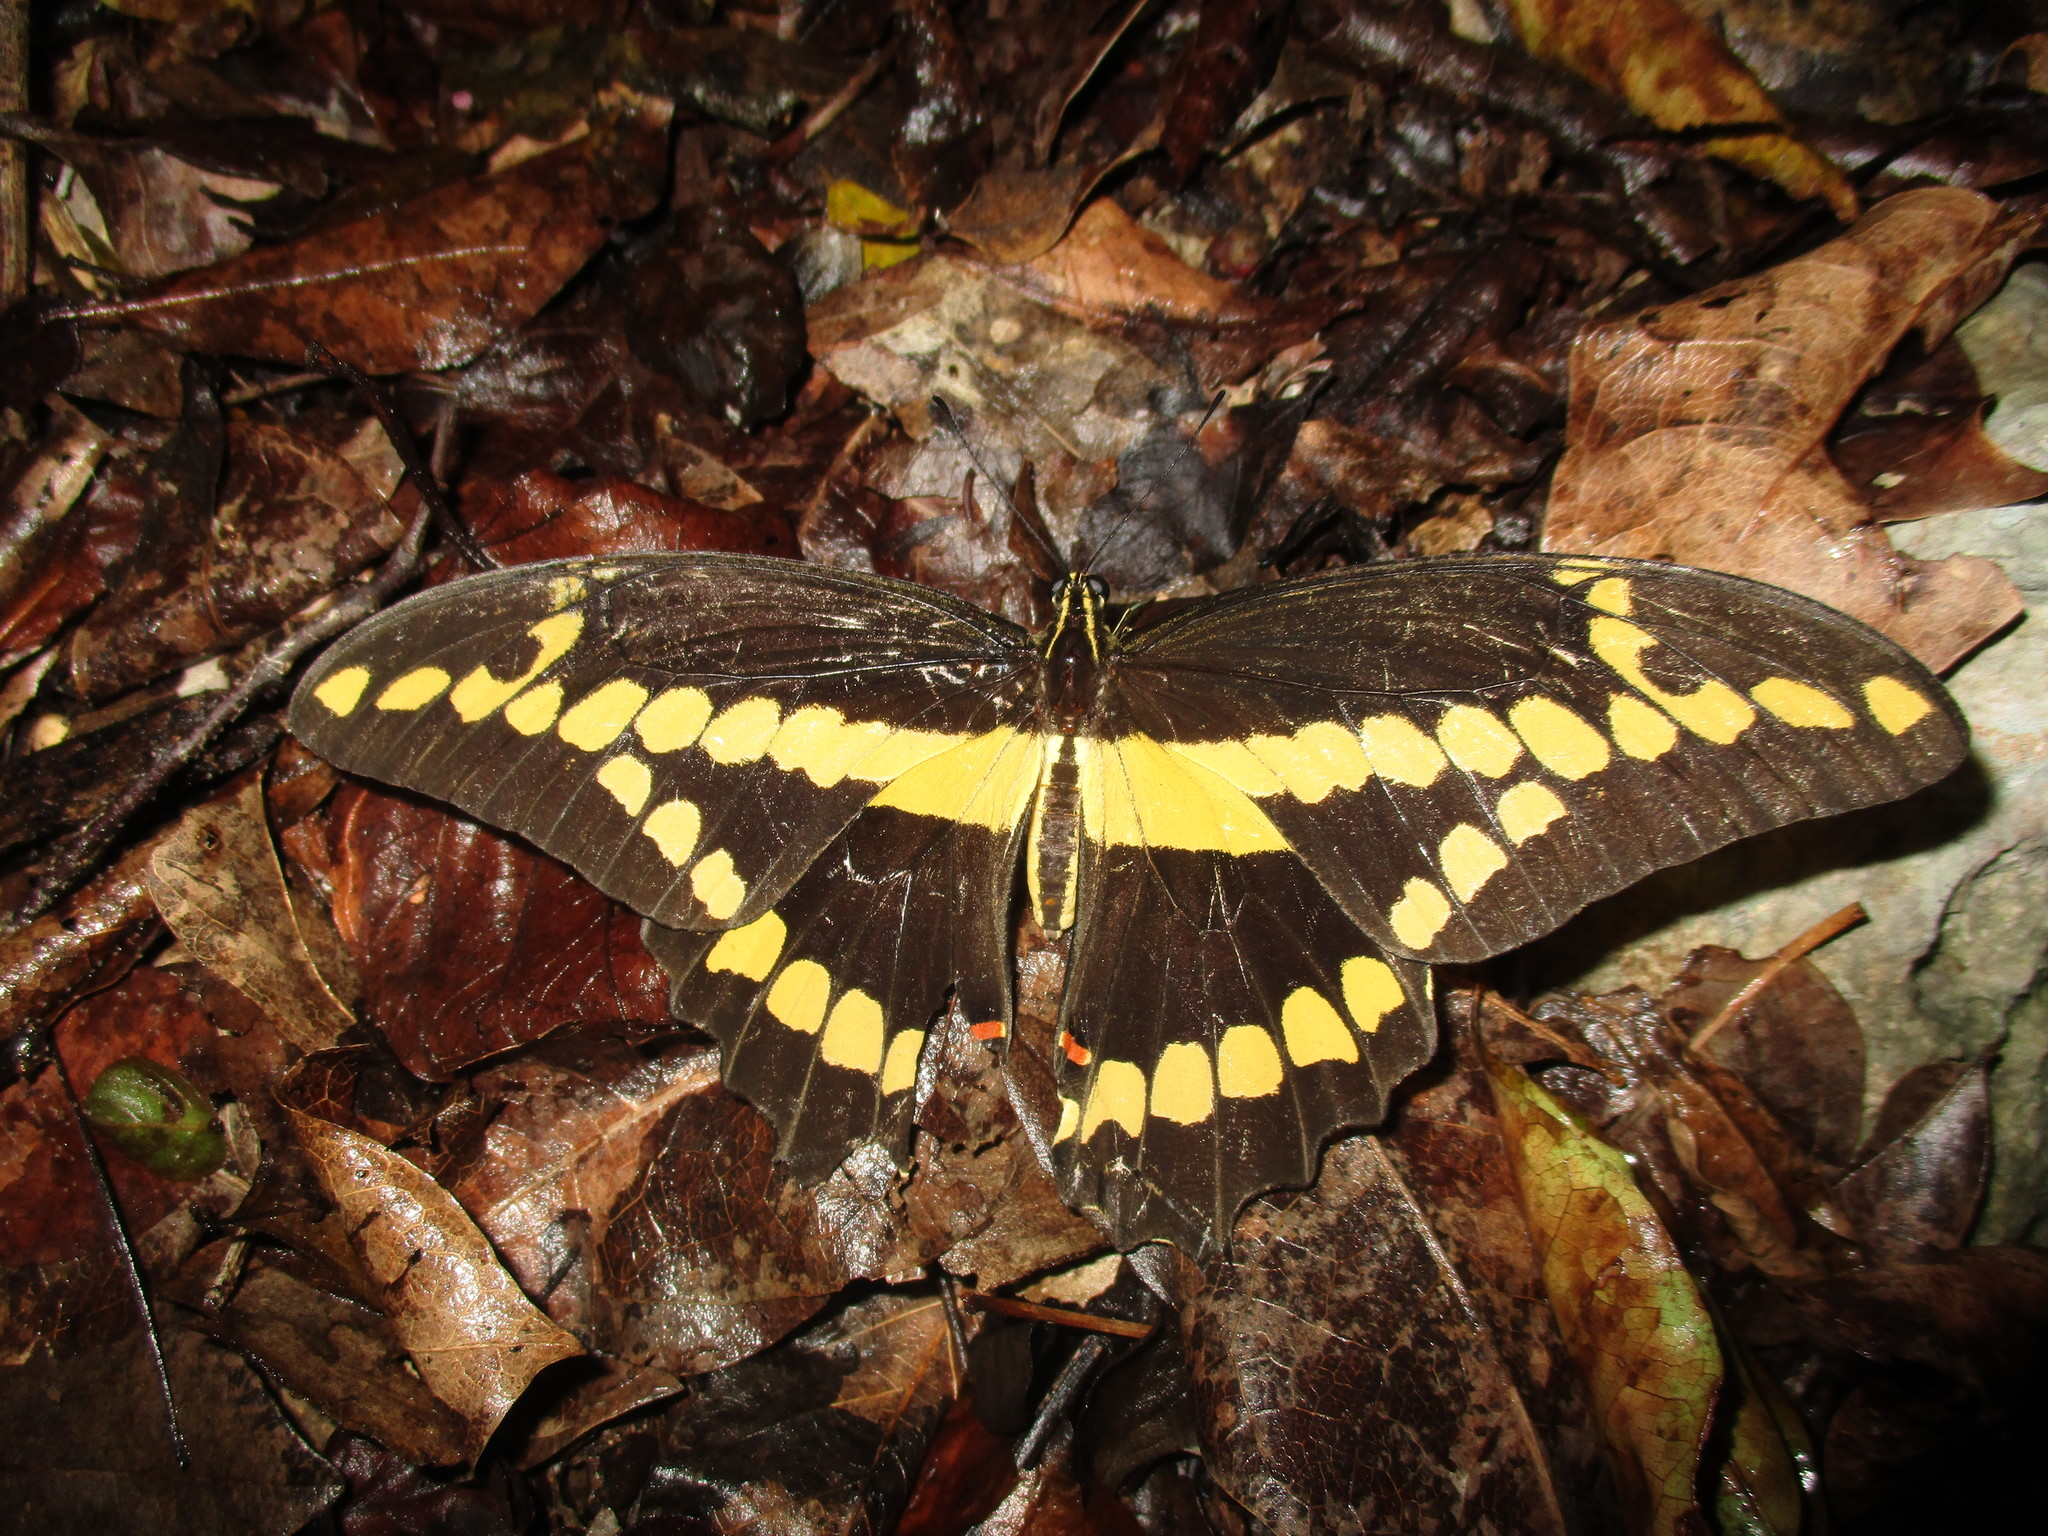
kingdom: Animalia
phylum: Arthropoda
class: Insecta
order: Lepidoptera
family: Papilionidae
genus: Papilio
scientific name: Papilio rumiko
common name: Western giant swallowtail
